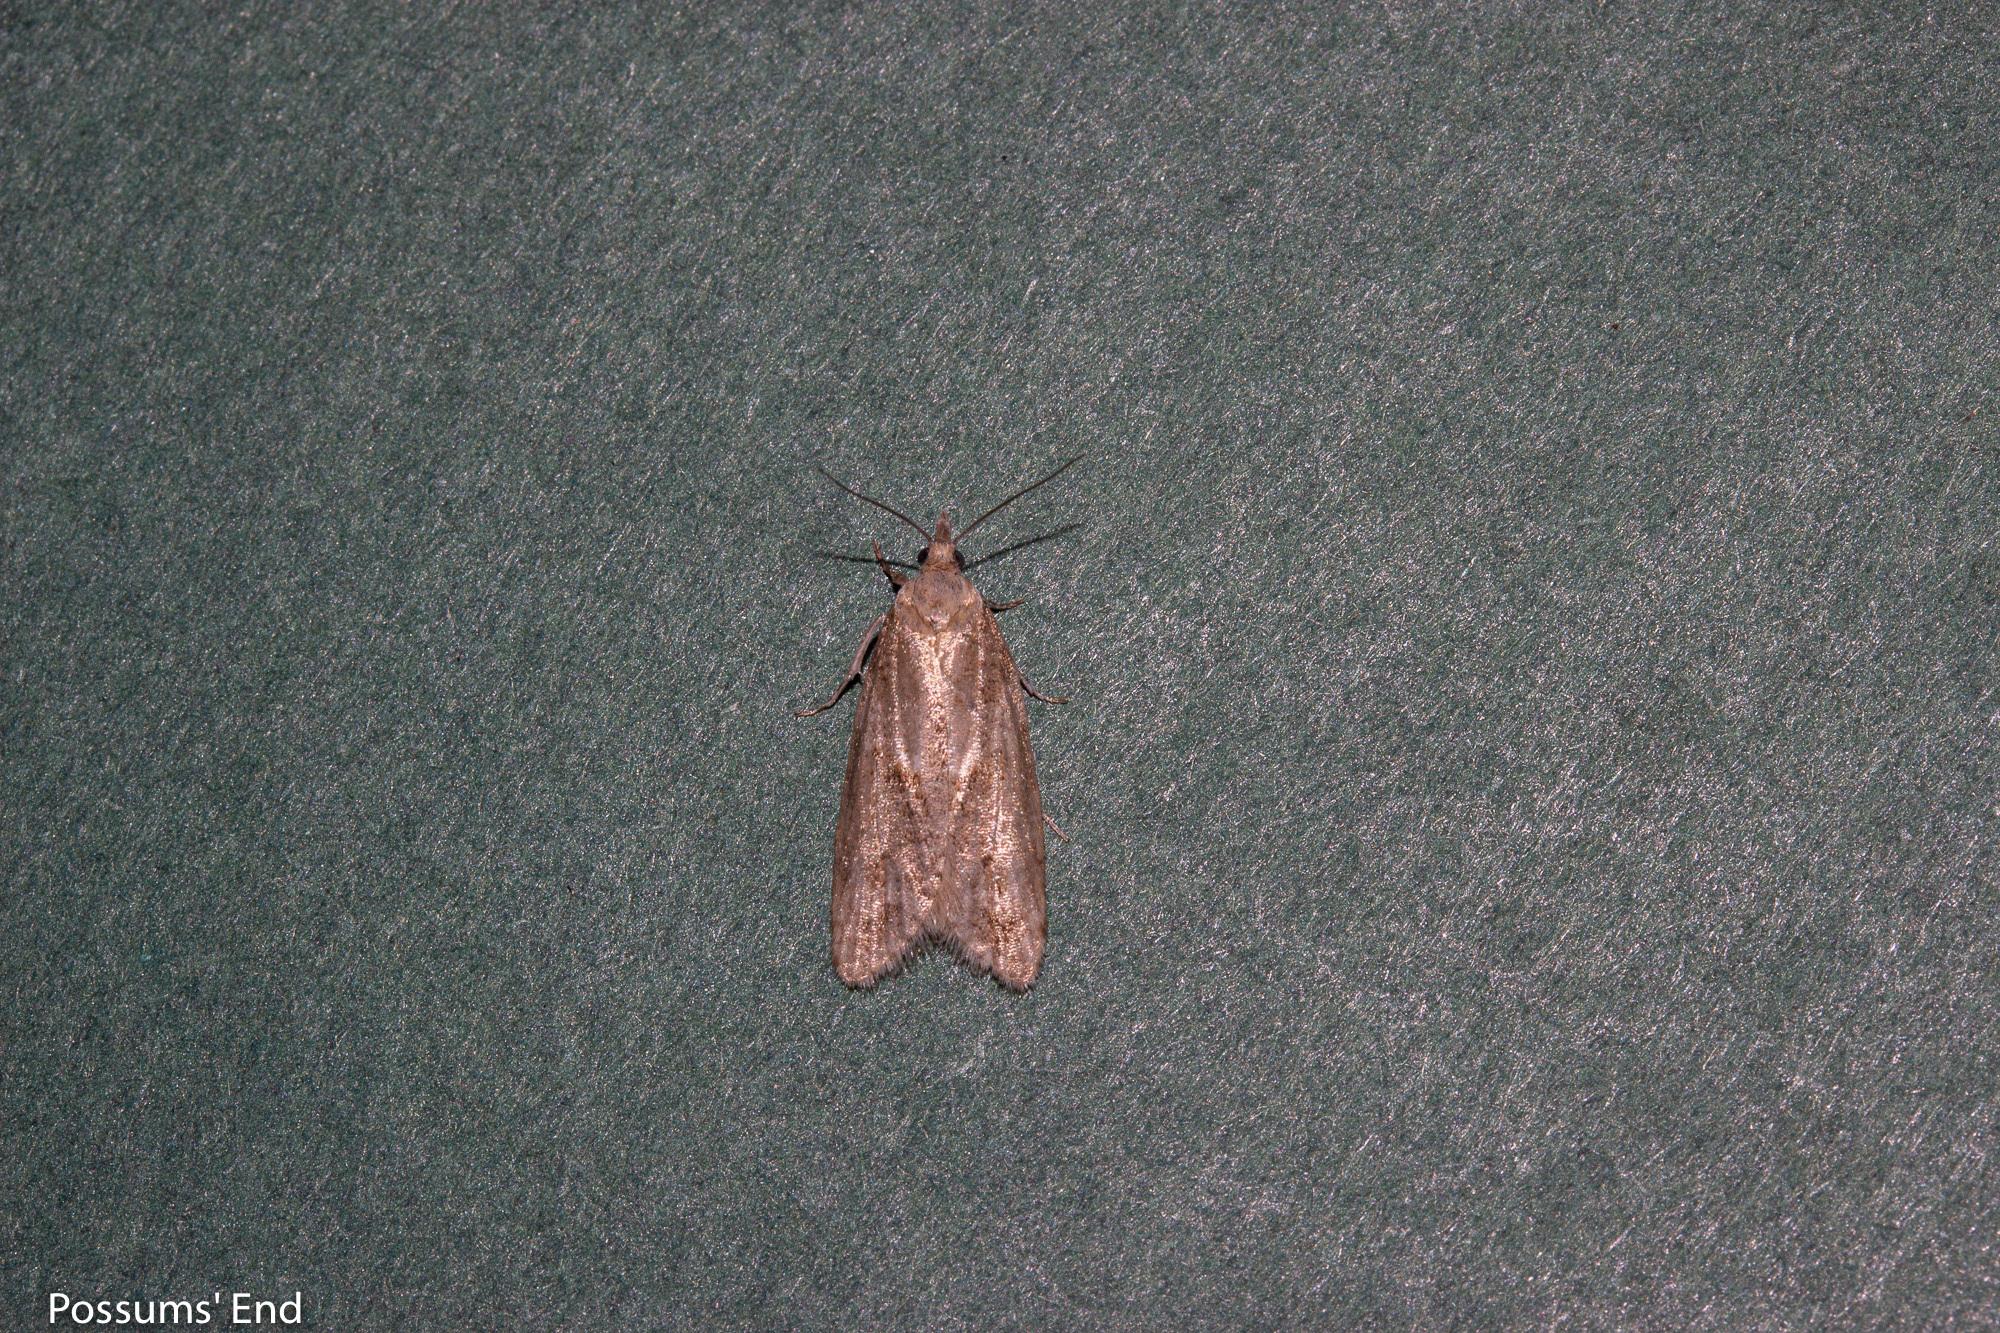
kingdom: Animalia
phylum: Arthropoda
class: Insecta
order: Lepidoptera
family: Tortricidae
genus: Prothelymna
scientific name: Prothelymna antiquana
